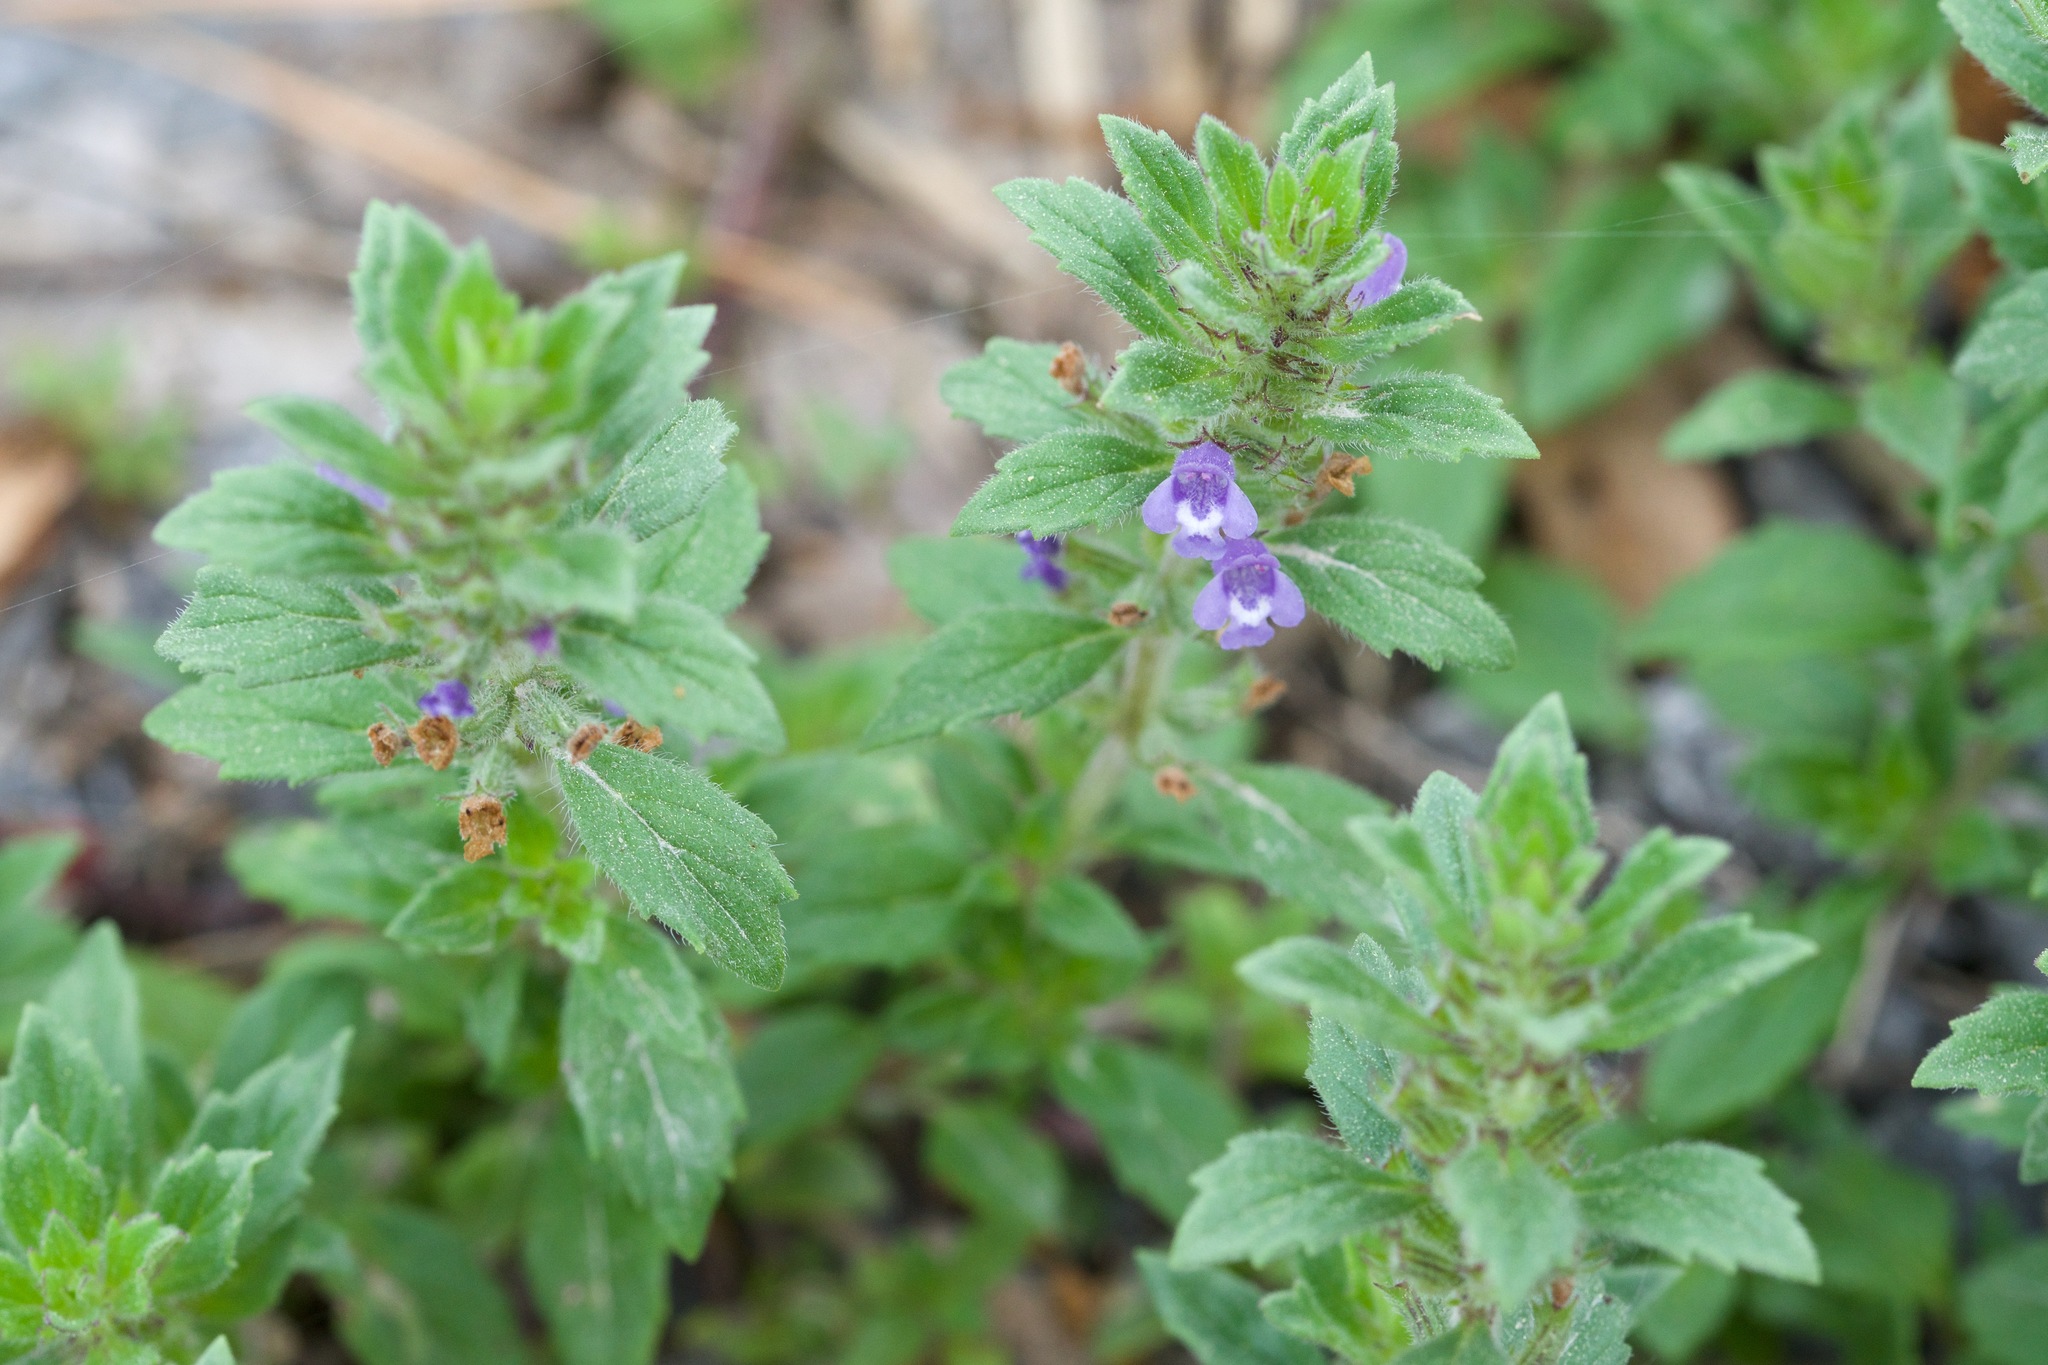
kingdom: Plantae
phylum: Tracheophyta
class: Magnoliopsida
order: Lamiales
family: Lamiaceae
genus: Clinopodium
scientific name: Clinopodium acinos
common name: Basil thyme
